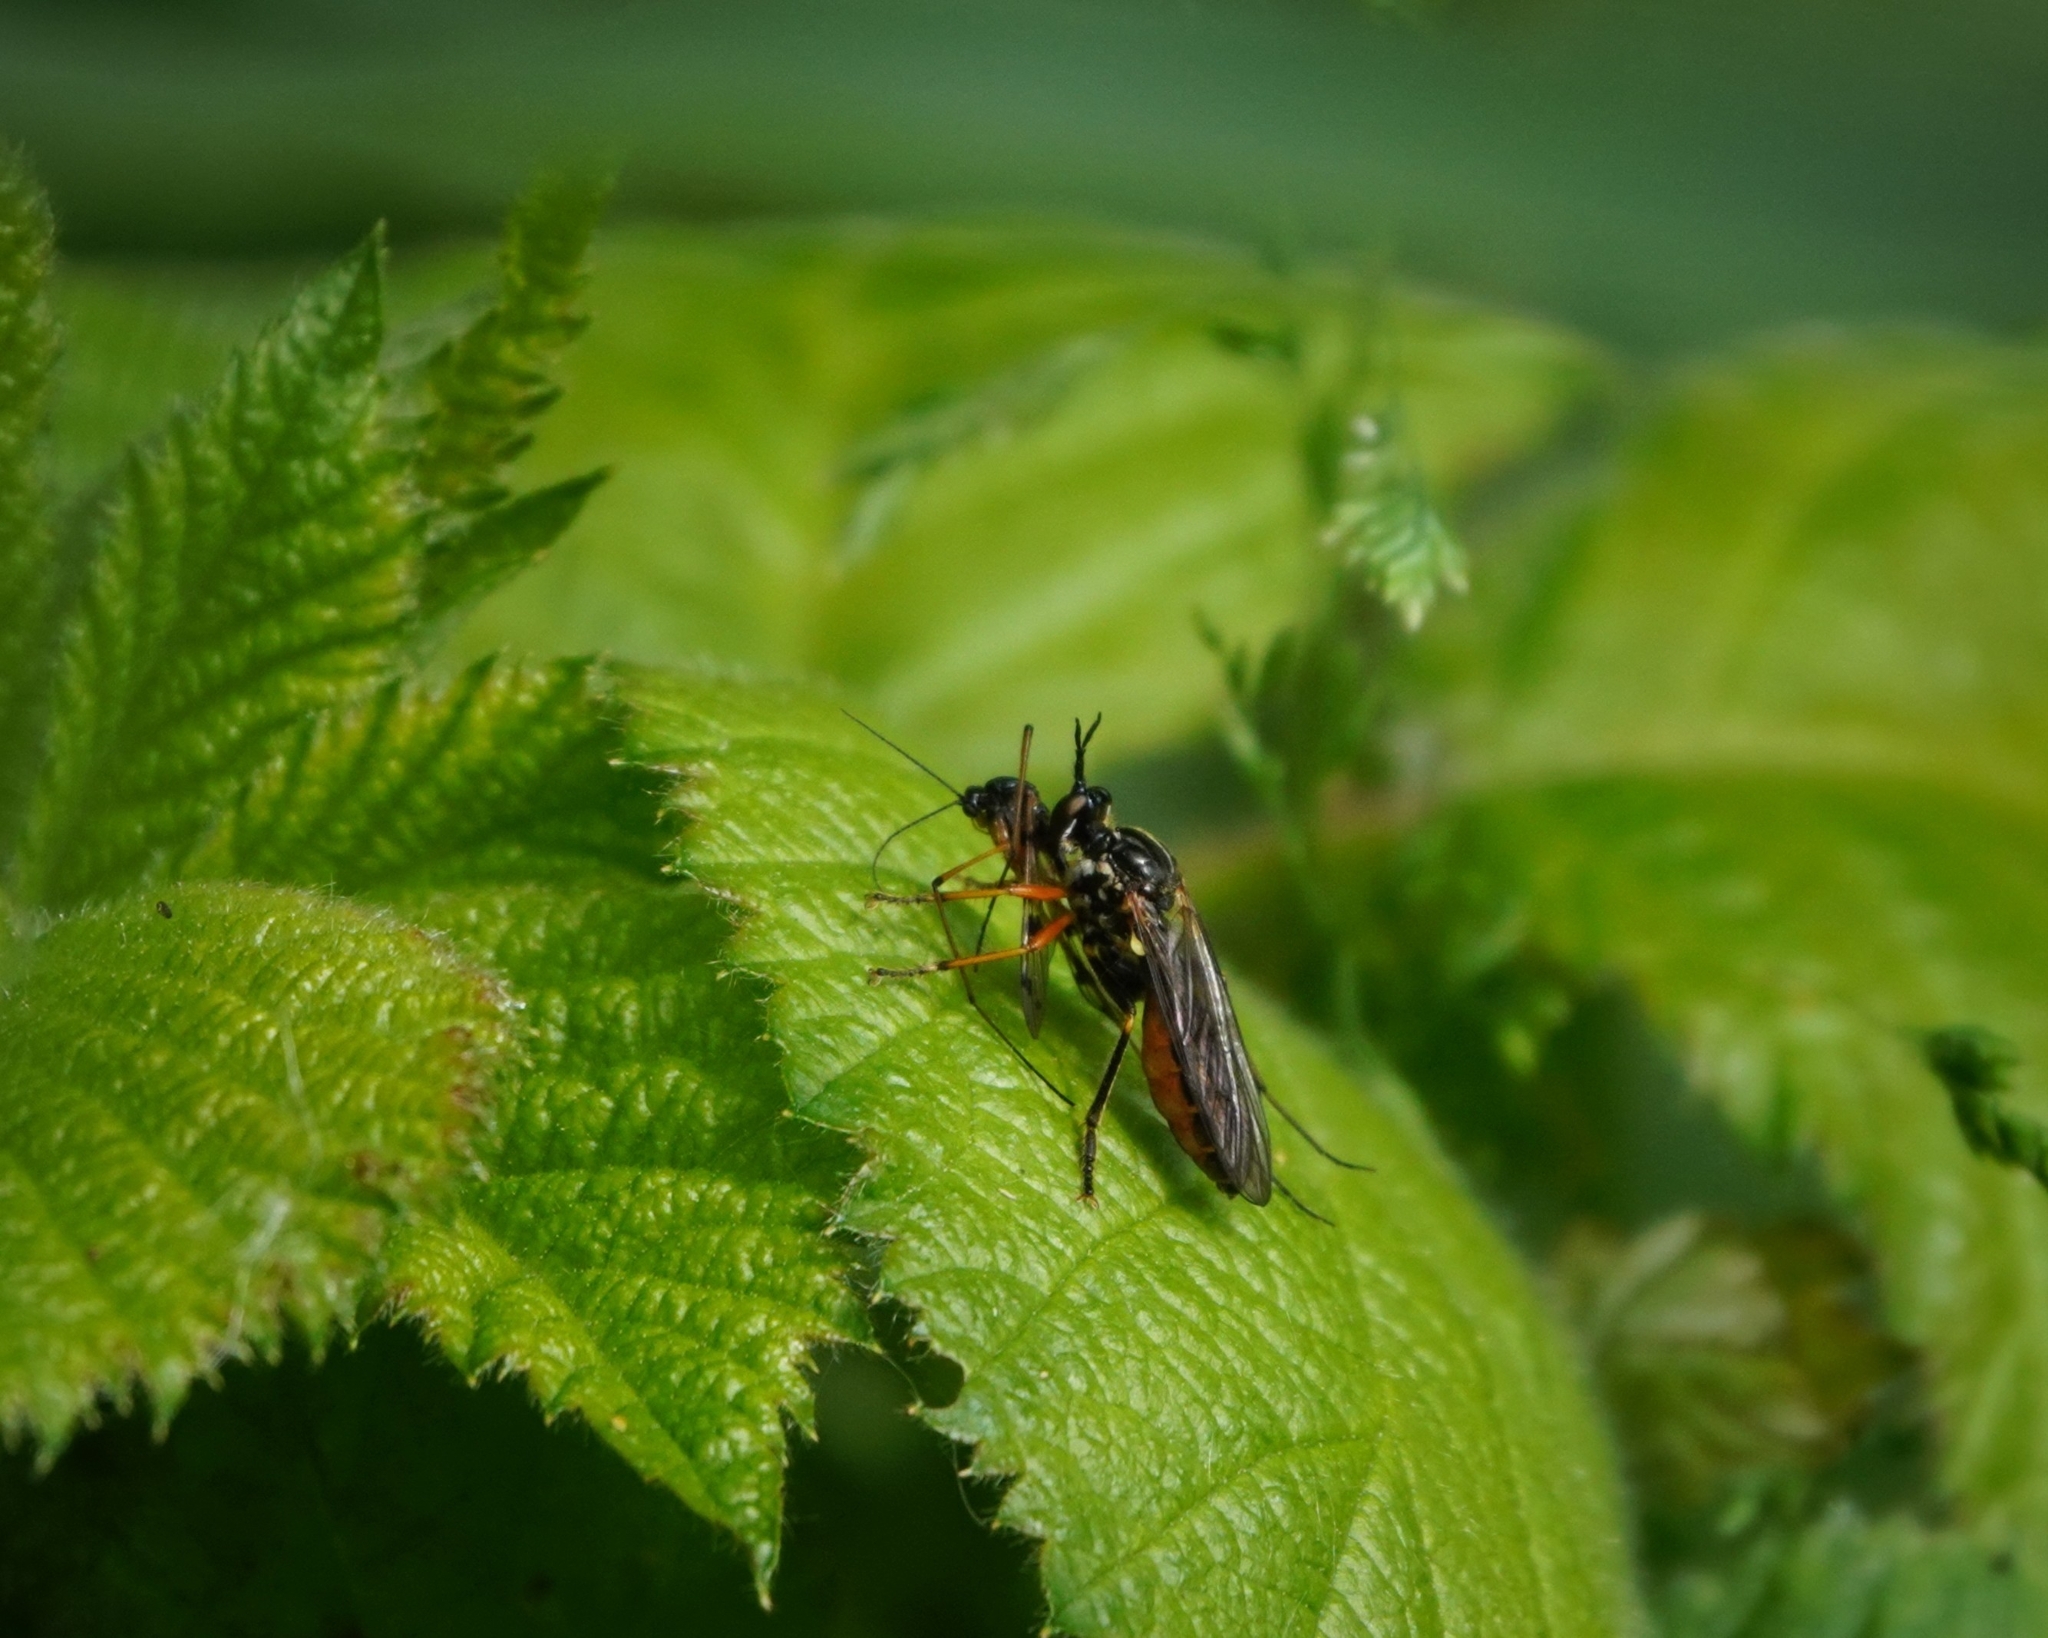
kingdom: Animalia
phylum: Arthropoda
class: Insecta
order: Diptera
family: Asilidae
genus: Dioctria
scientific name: Dioctria rufipes
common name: Common red-legged robberfly
